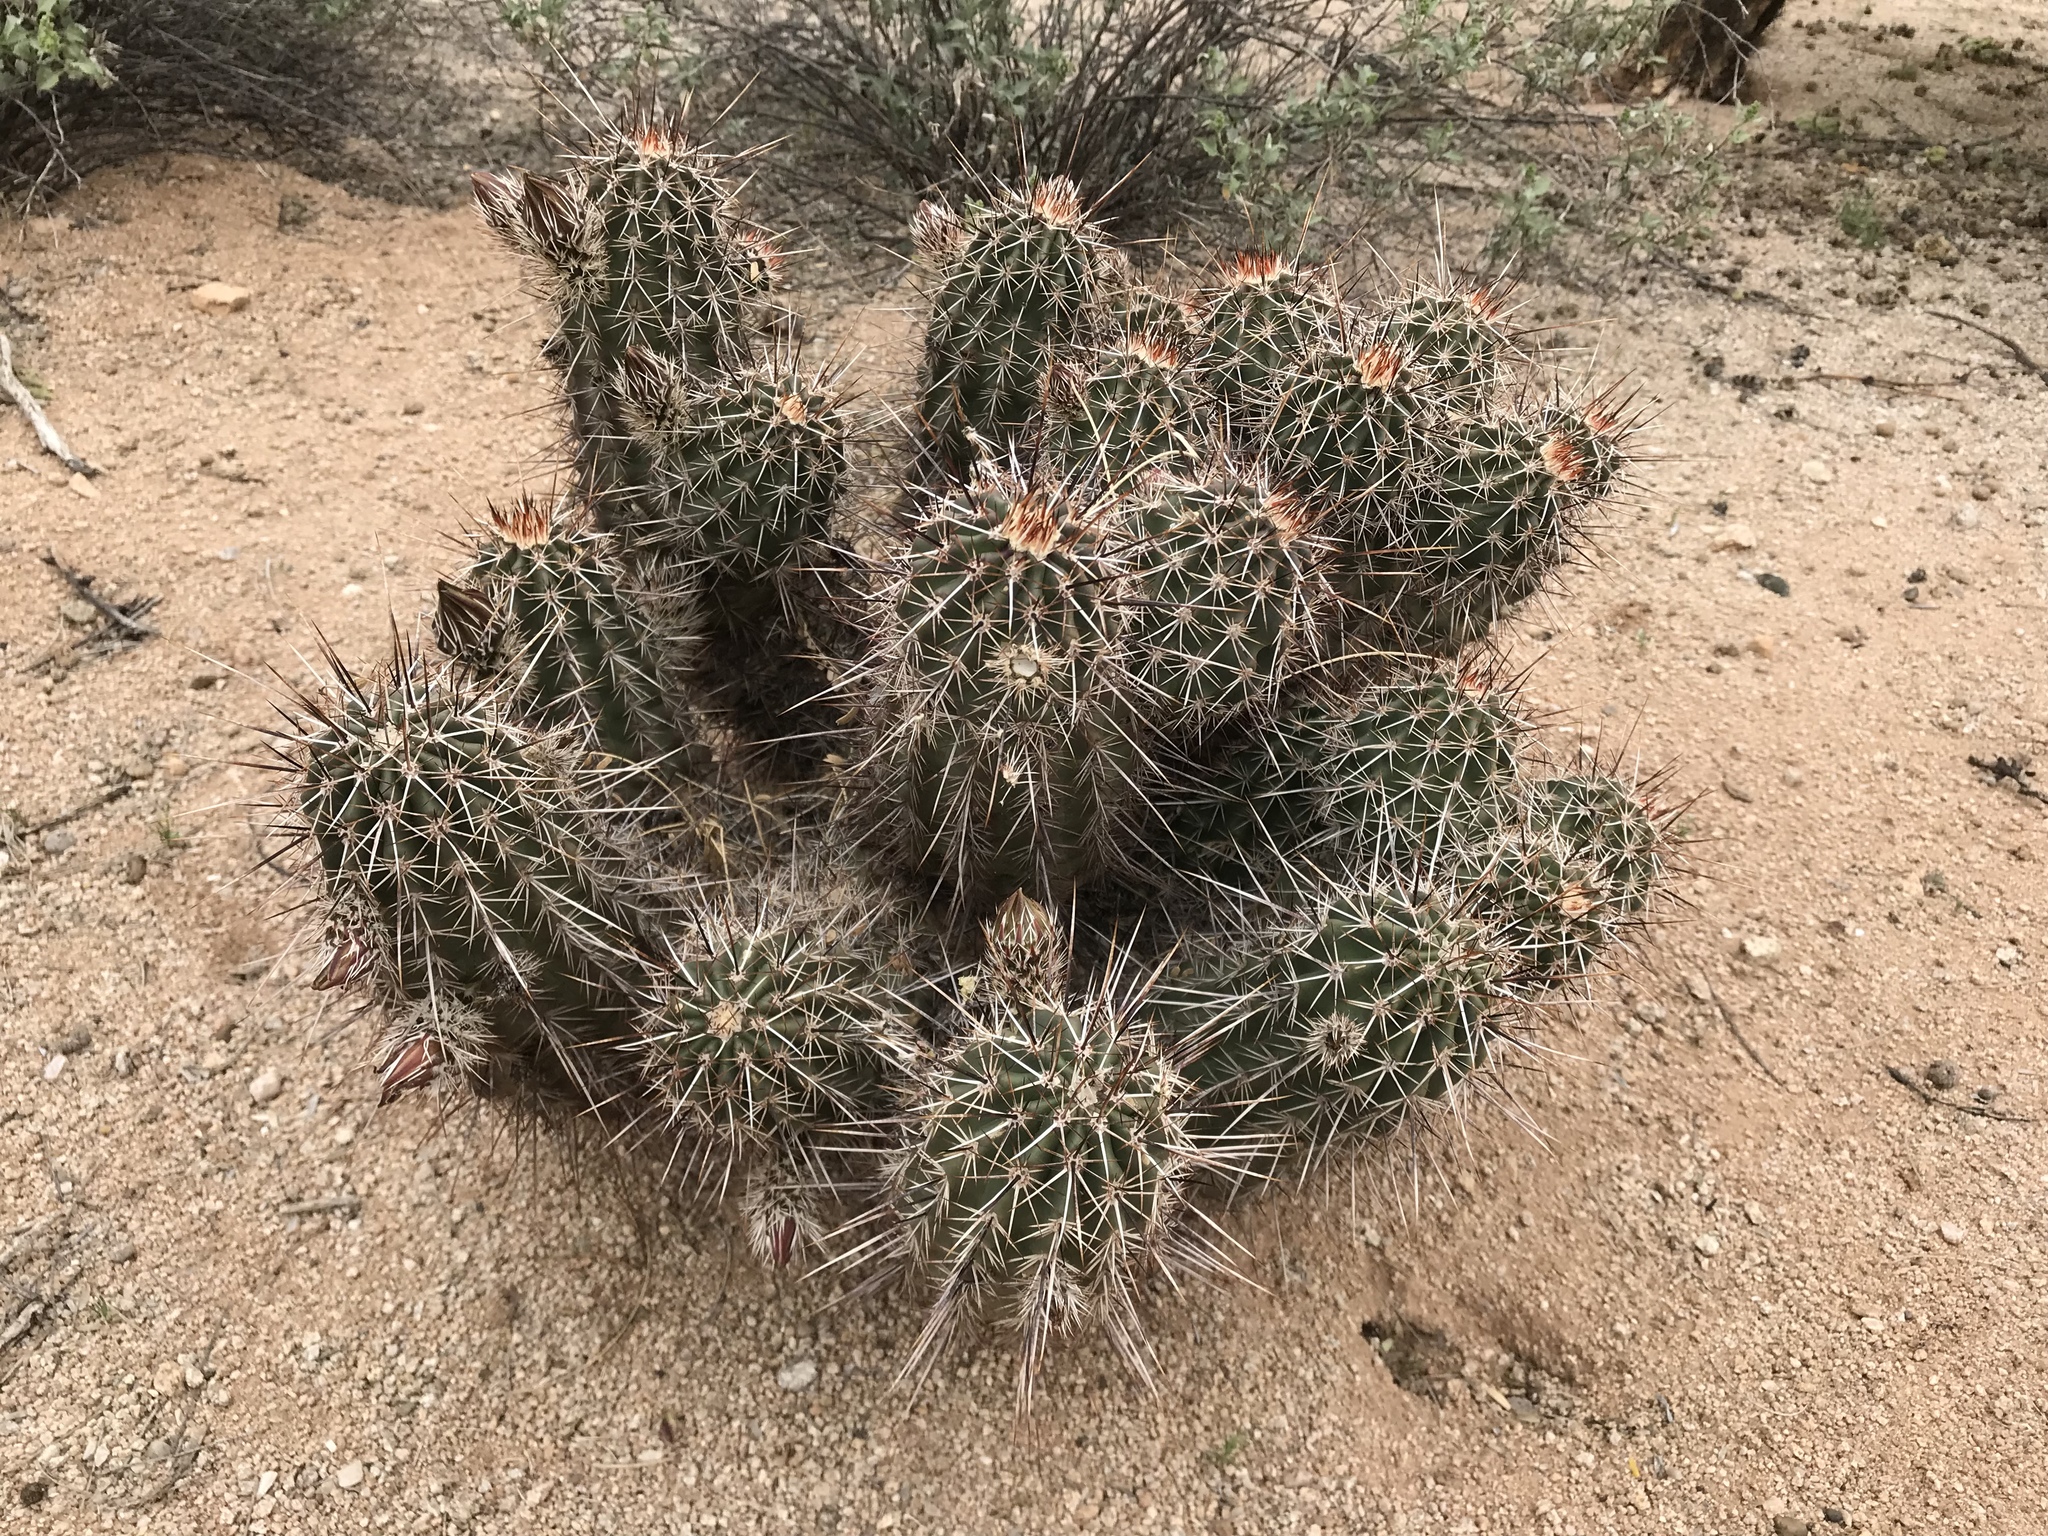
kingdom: Plantae
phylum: Tracheophyta
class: Magnoliopsida
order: Caryophyllales
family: Cactaceae
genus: Echinocereus
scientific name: Echinocereus fasciculatus
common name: Bundle hedgehog
